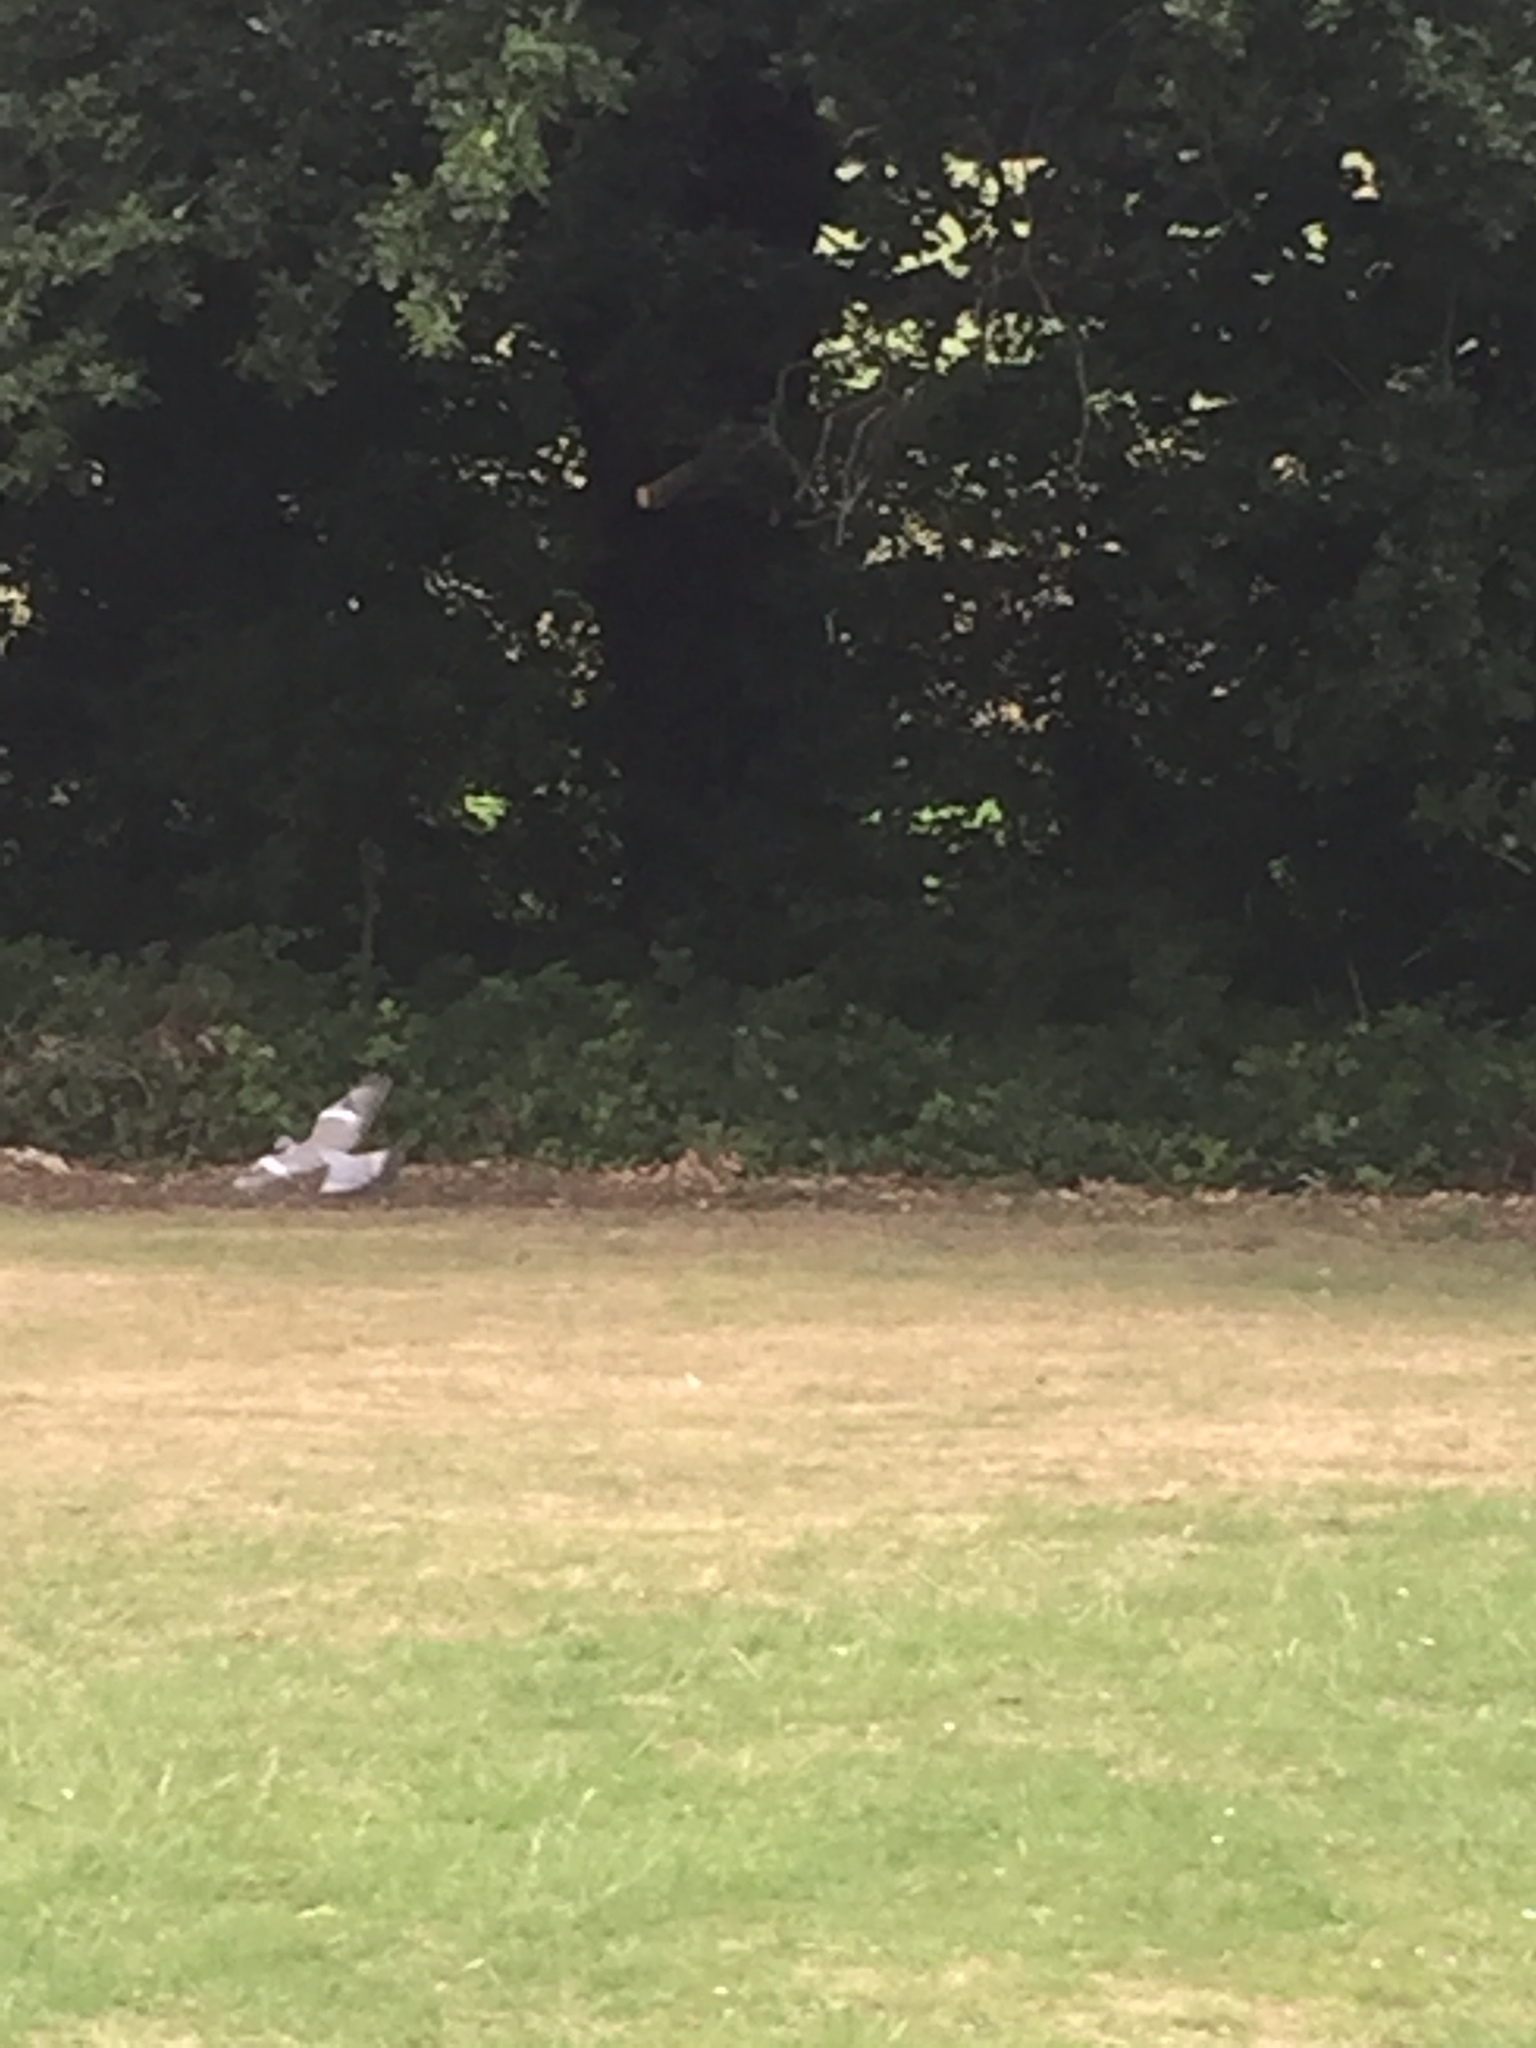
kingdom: Animalia
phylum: Chordata
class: Aves
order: Columbiformes
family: Columbidae
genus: Columba
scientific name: Columba palumbus
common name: Common wood pigeon
